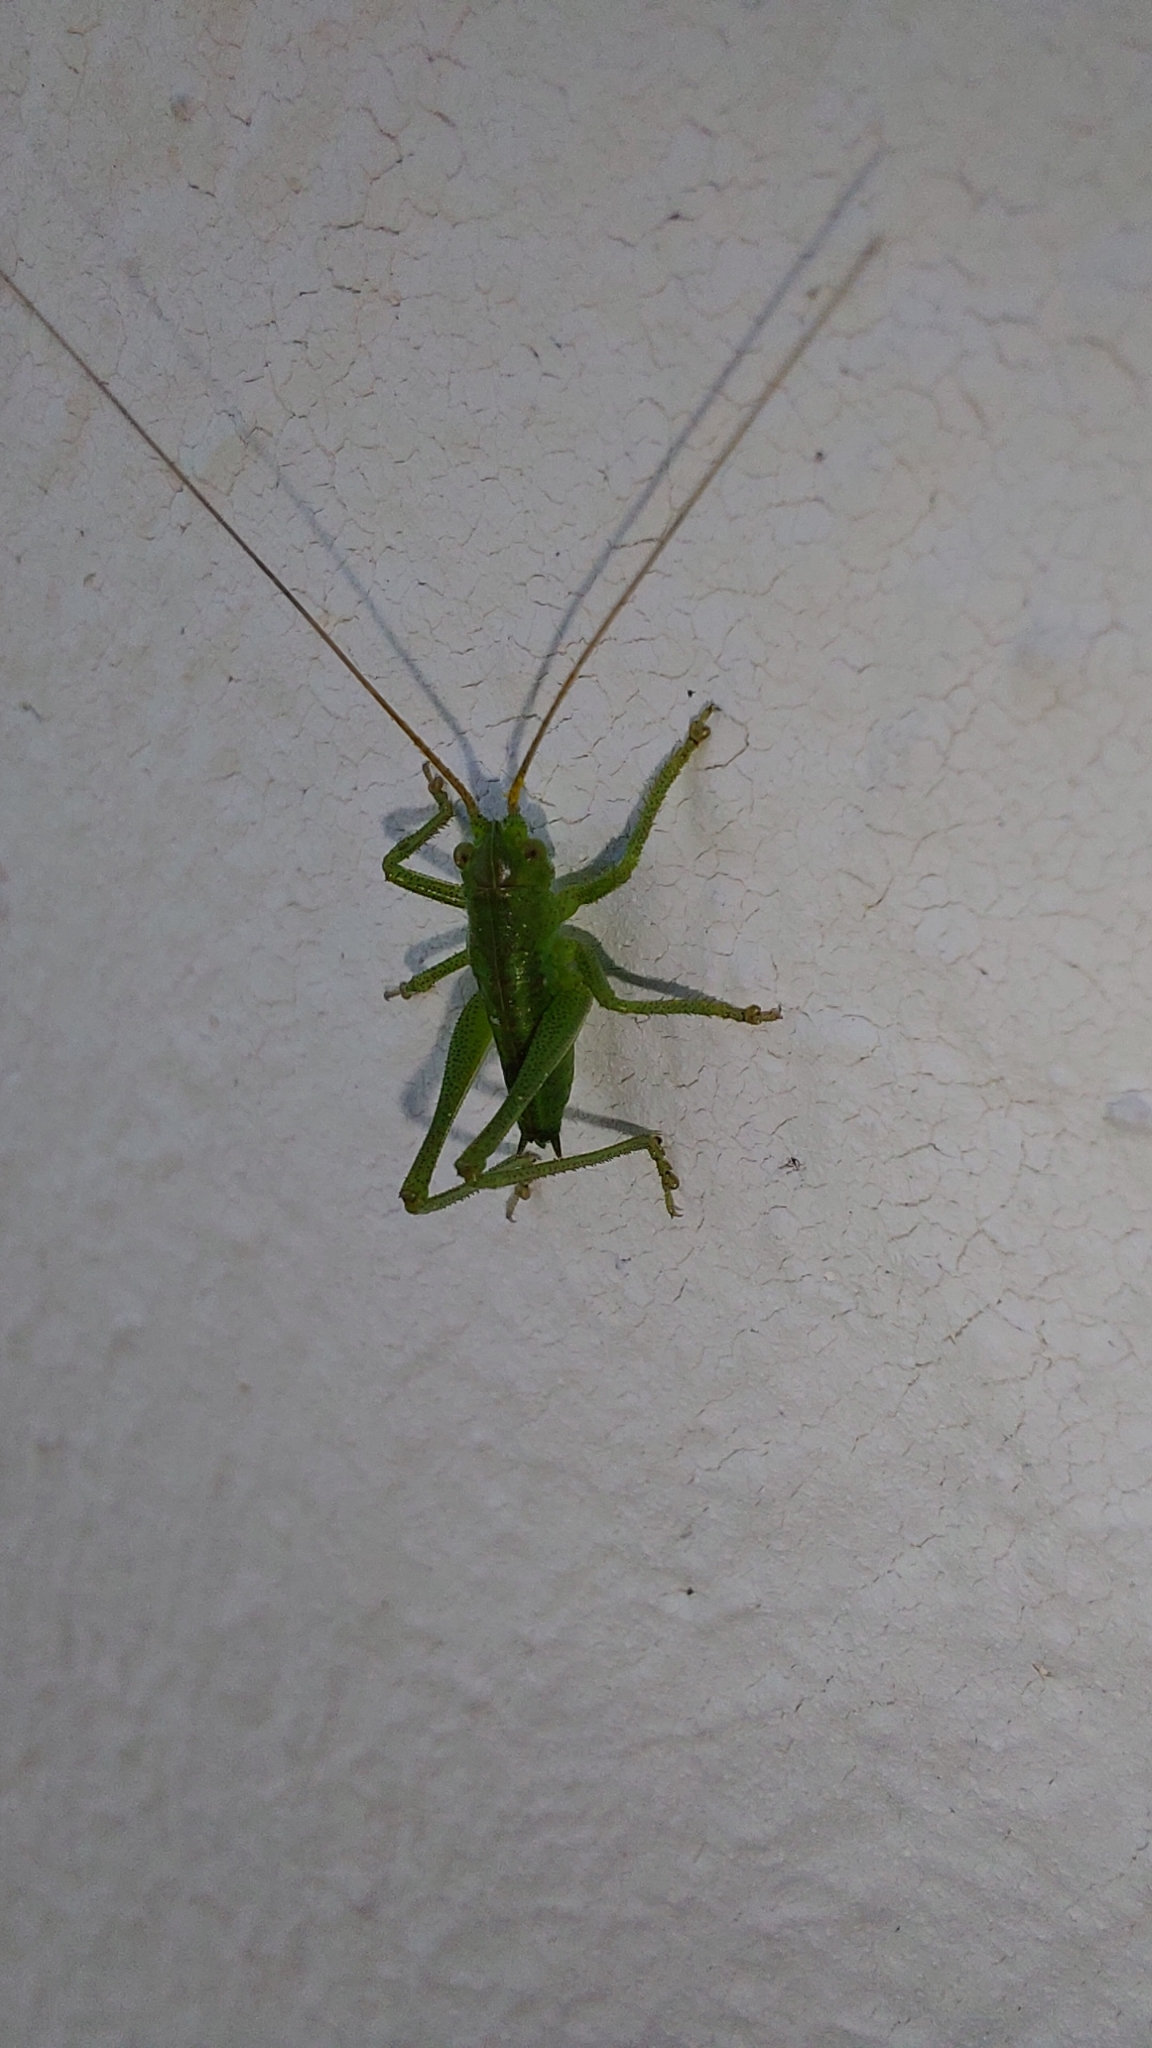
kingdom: Animalia
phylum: Arthropoda
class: Insecta
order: Orthoptera
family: Tettigoniidae
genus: Tettigonia
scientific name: Tettigonia viridissima
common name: Great green bush-cricket
